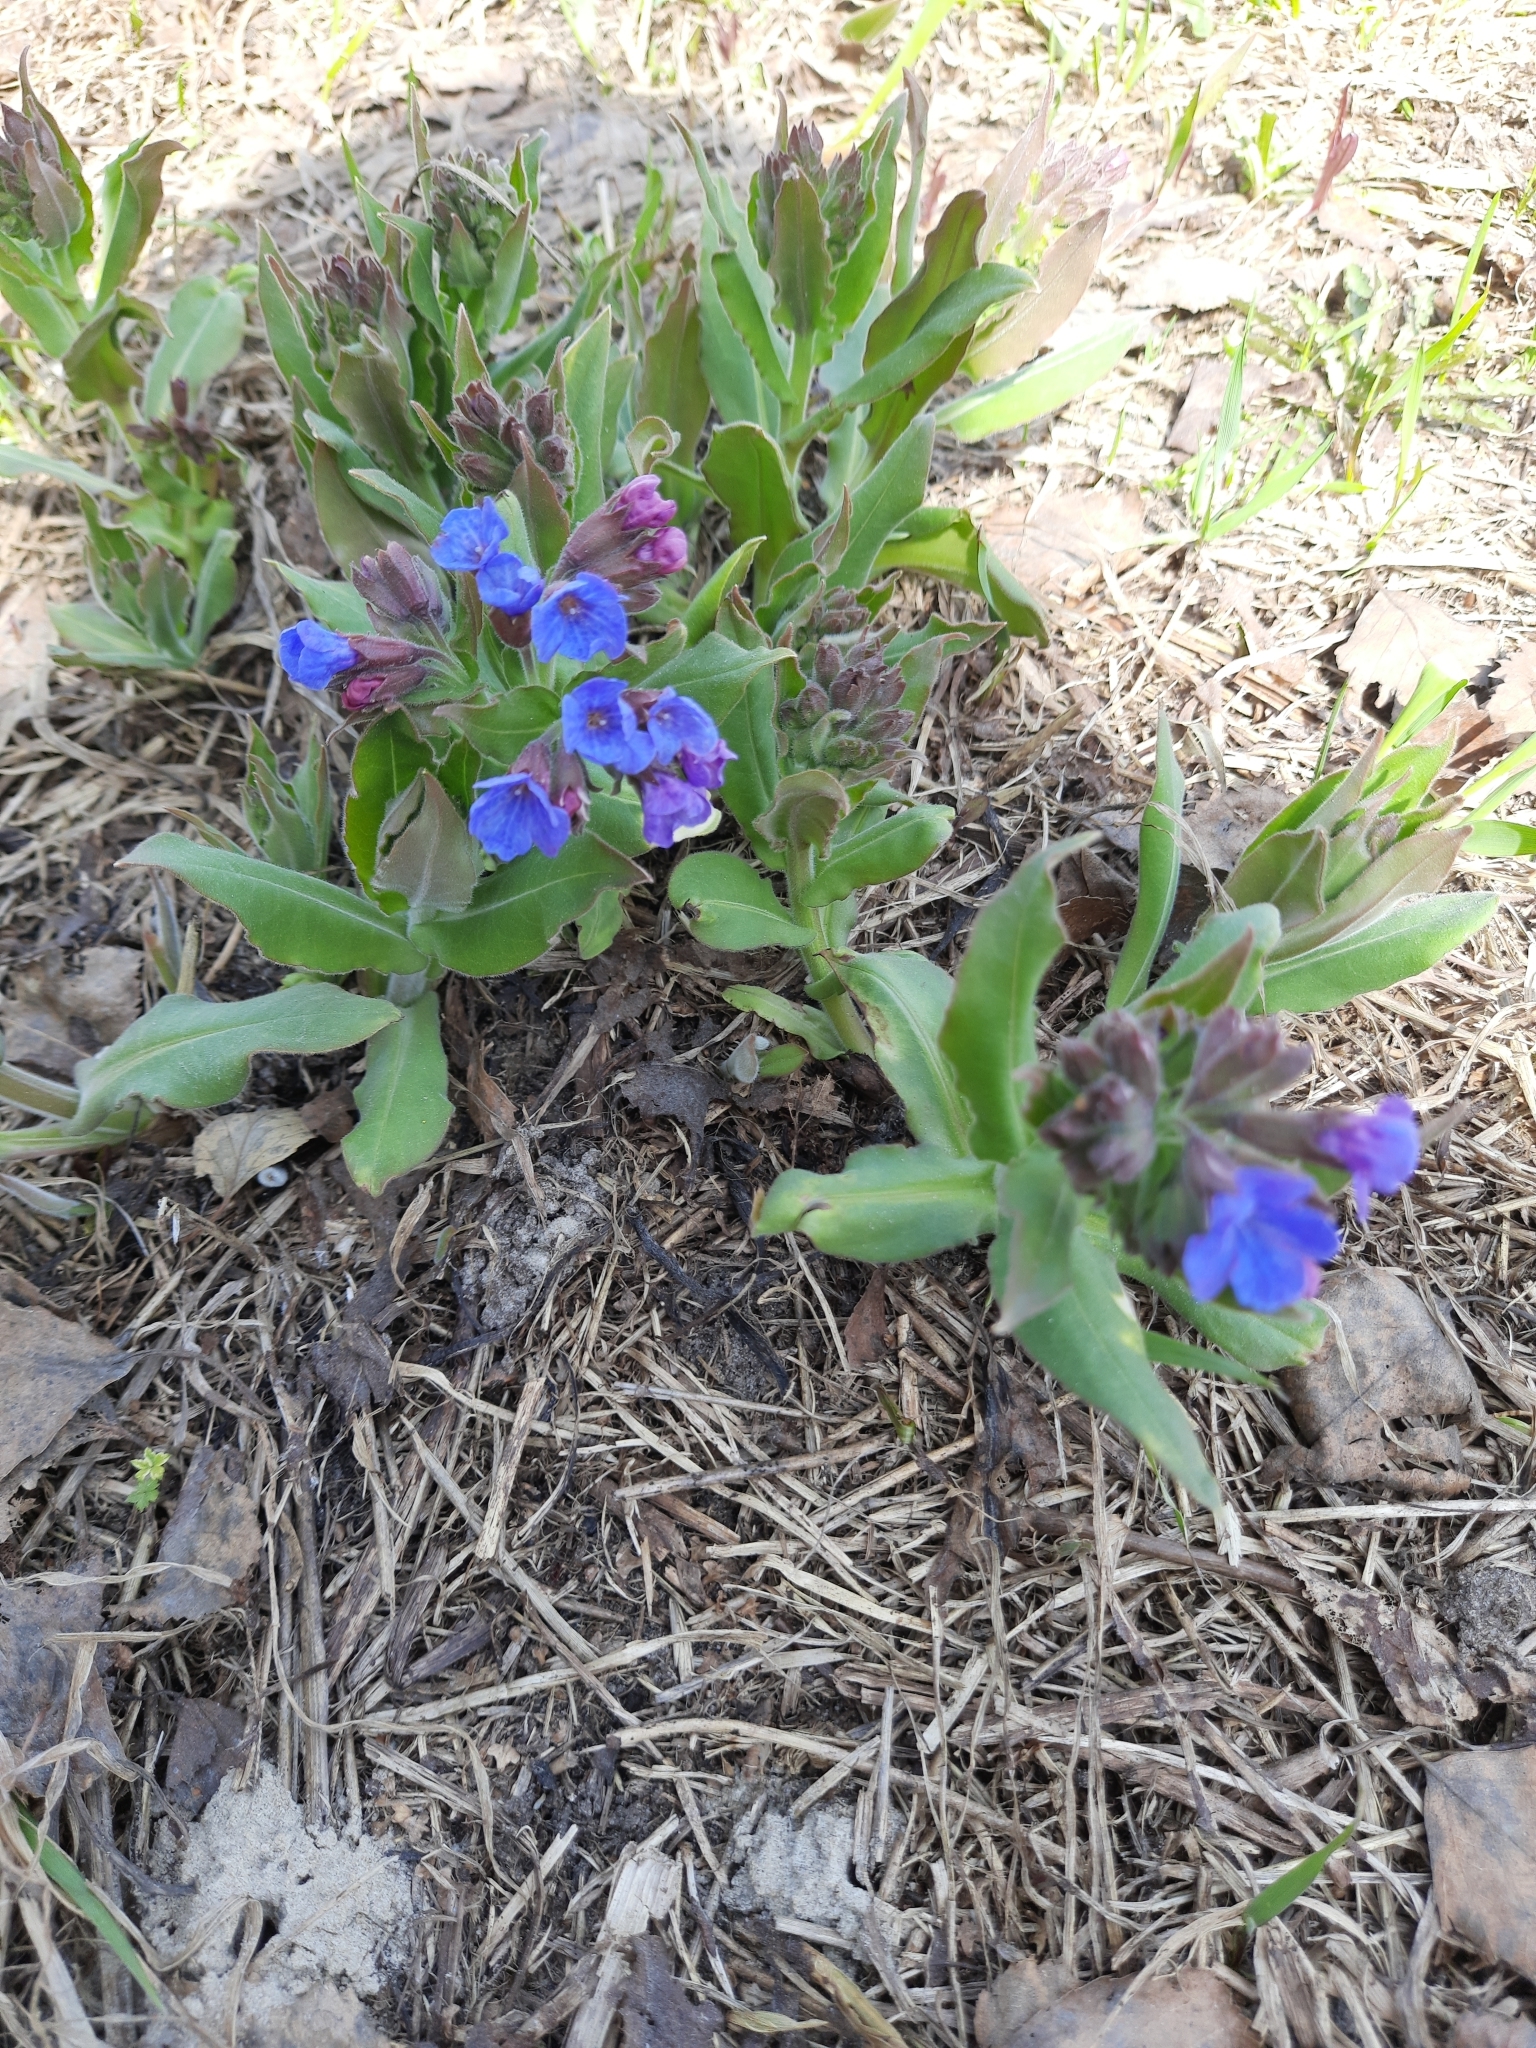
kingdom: Plantae
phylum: Tracheophyta
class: Magnoliopsida
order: Boraginales
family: Boraginaceae
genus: Pulmonaria
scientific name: Pulmonaria mollis
